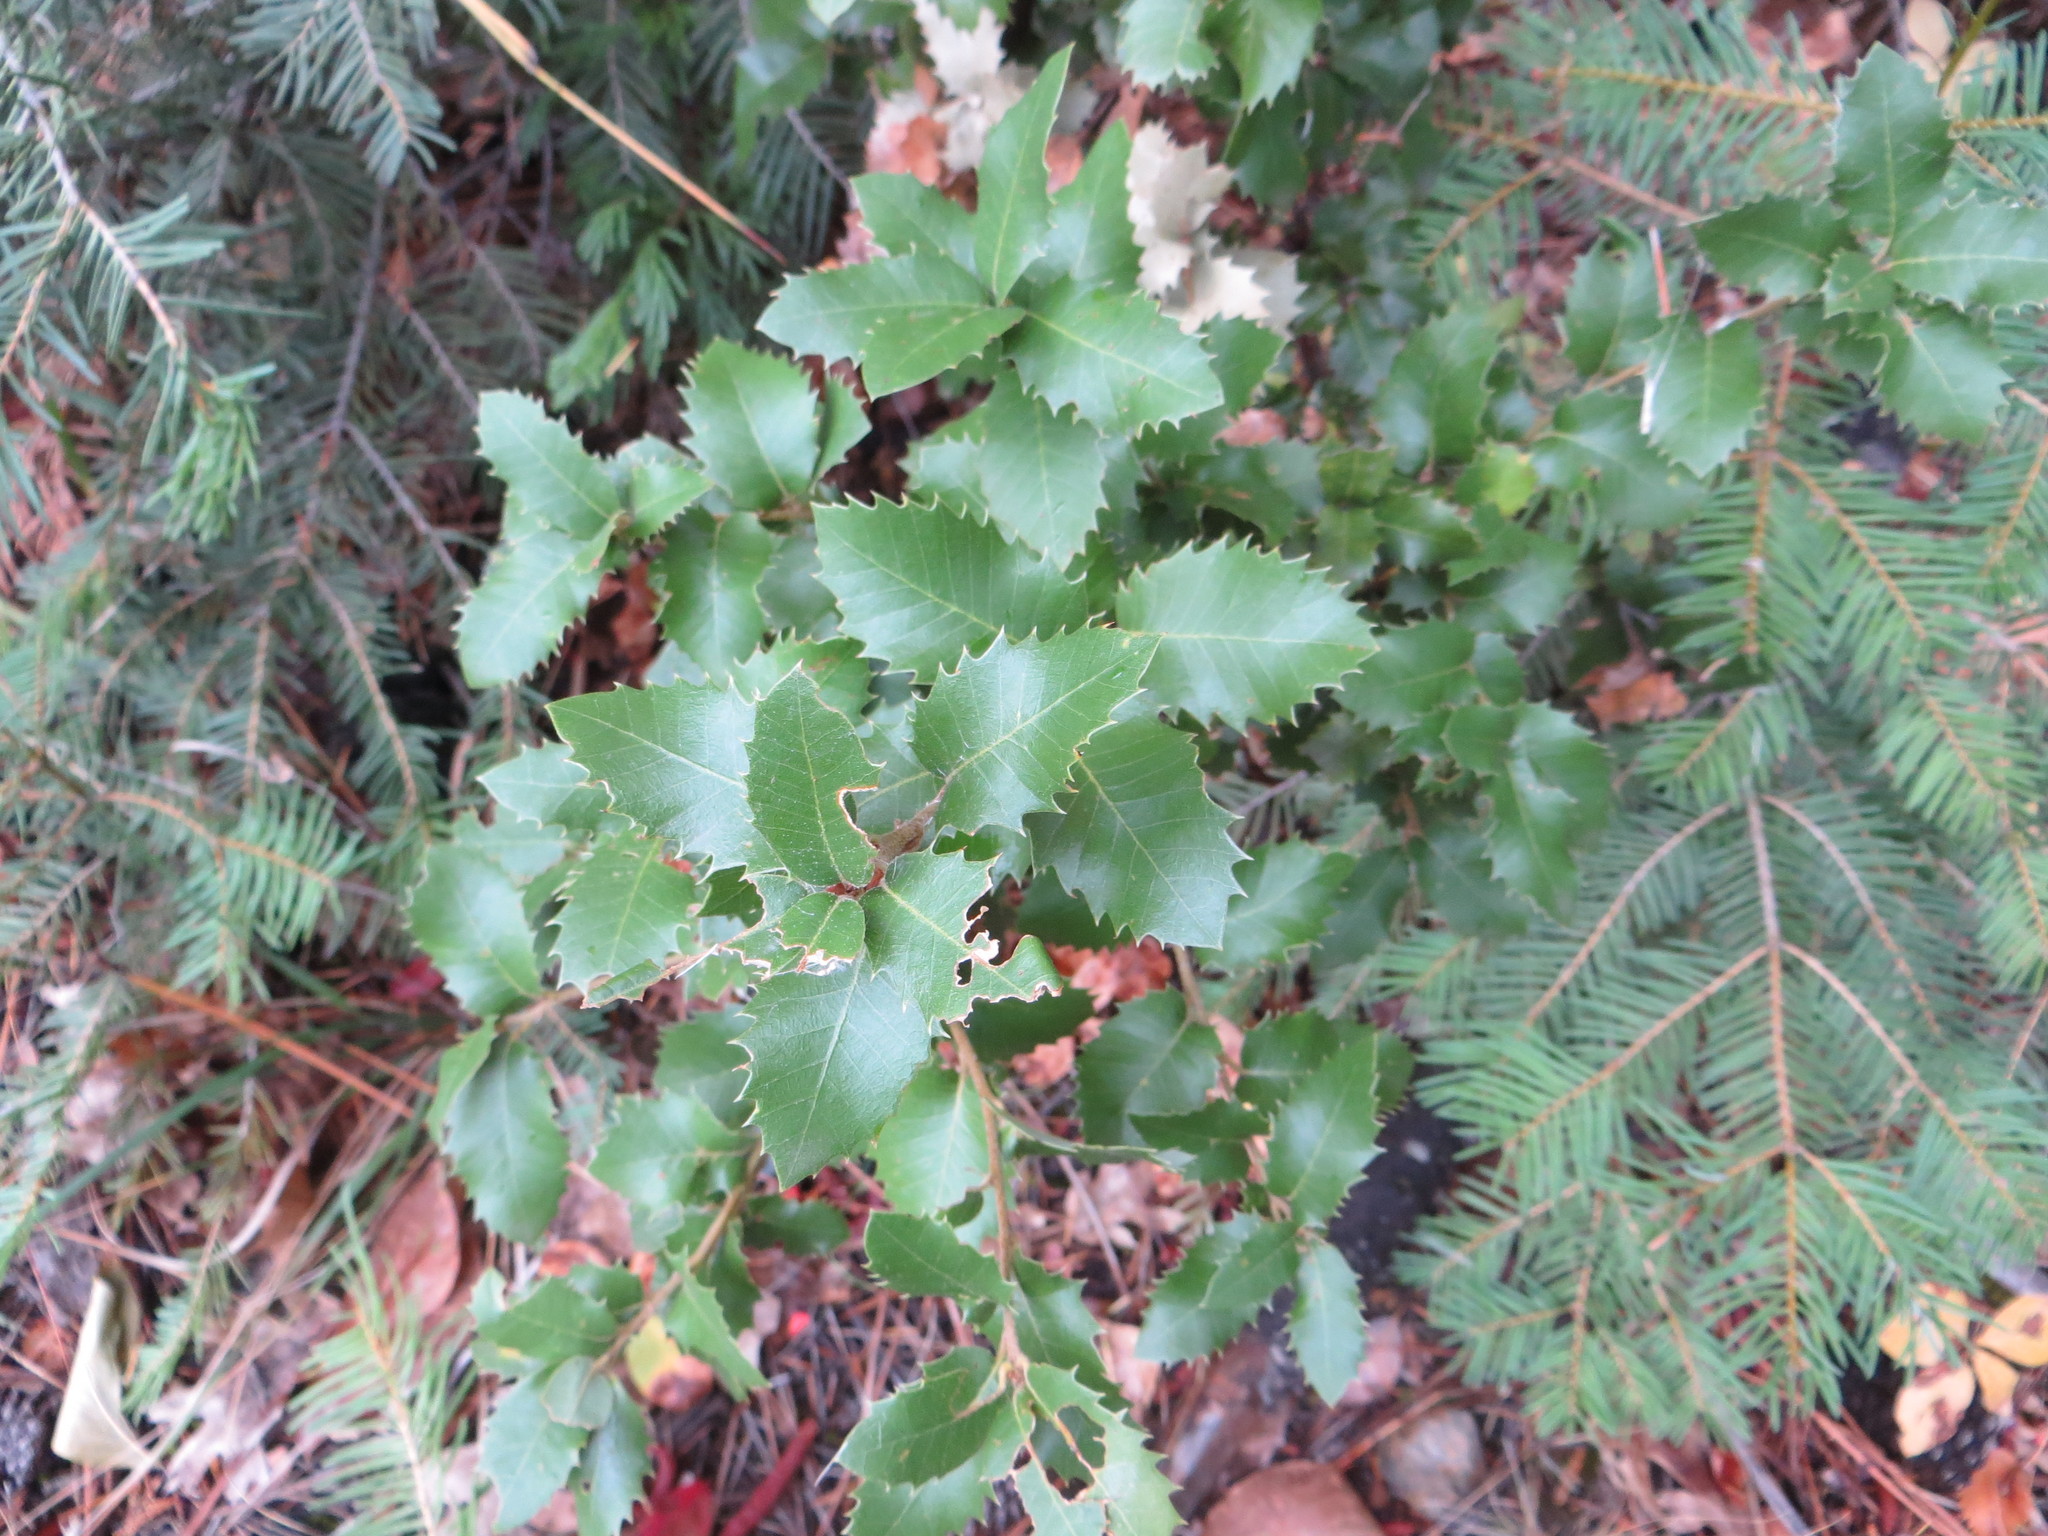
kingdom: Plantae
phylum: Tracheophyta
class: Magnoliopsida
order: Fagales
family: Fagaceae
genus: Quercus
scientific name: Quercus chrysolepis
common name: Canyon live oak
